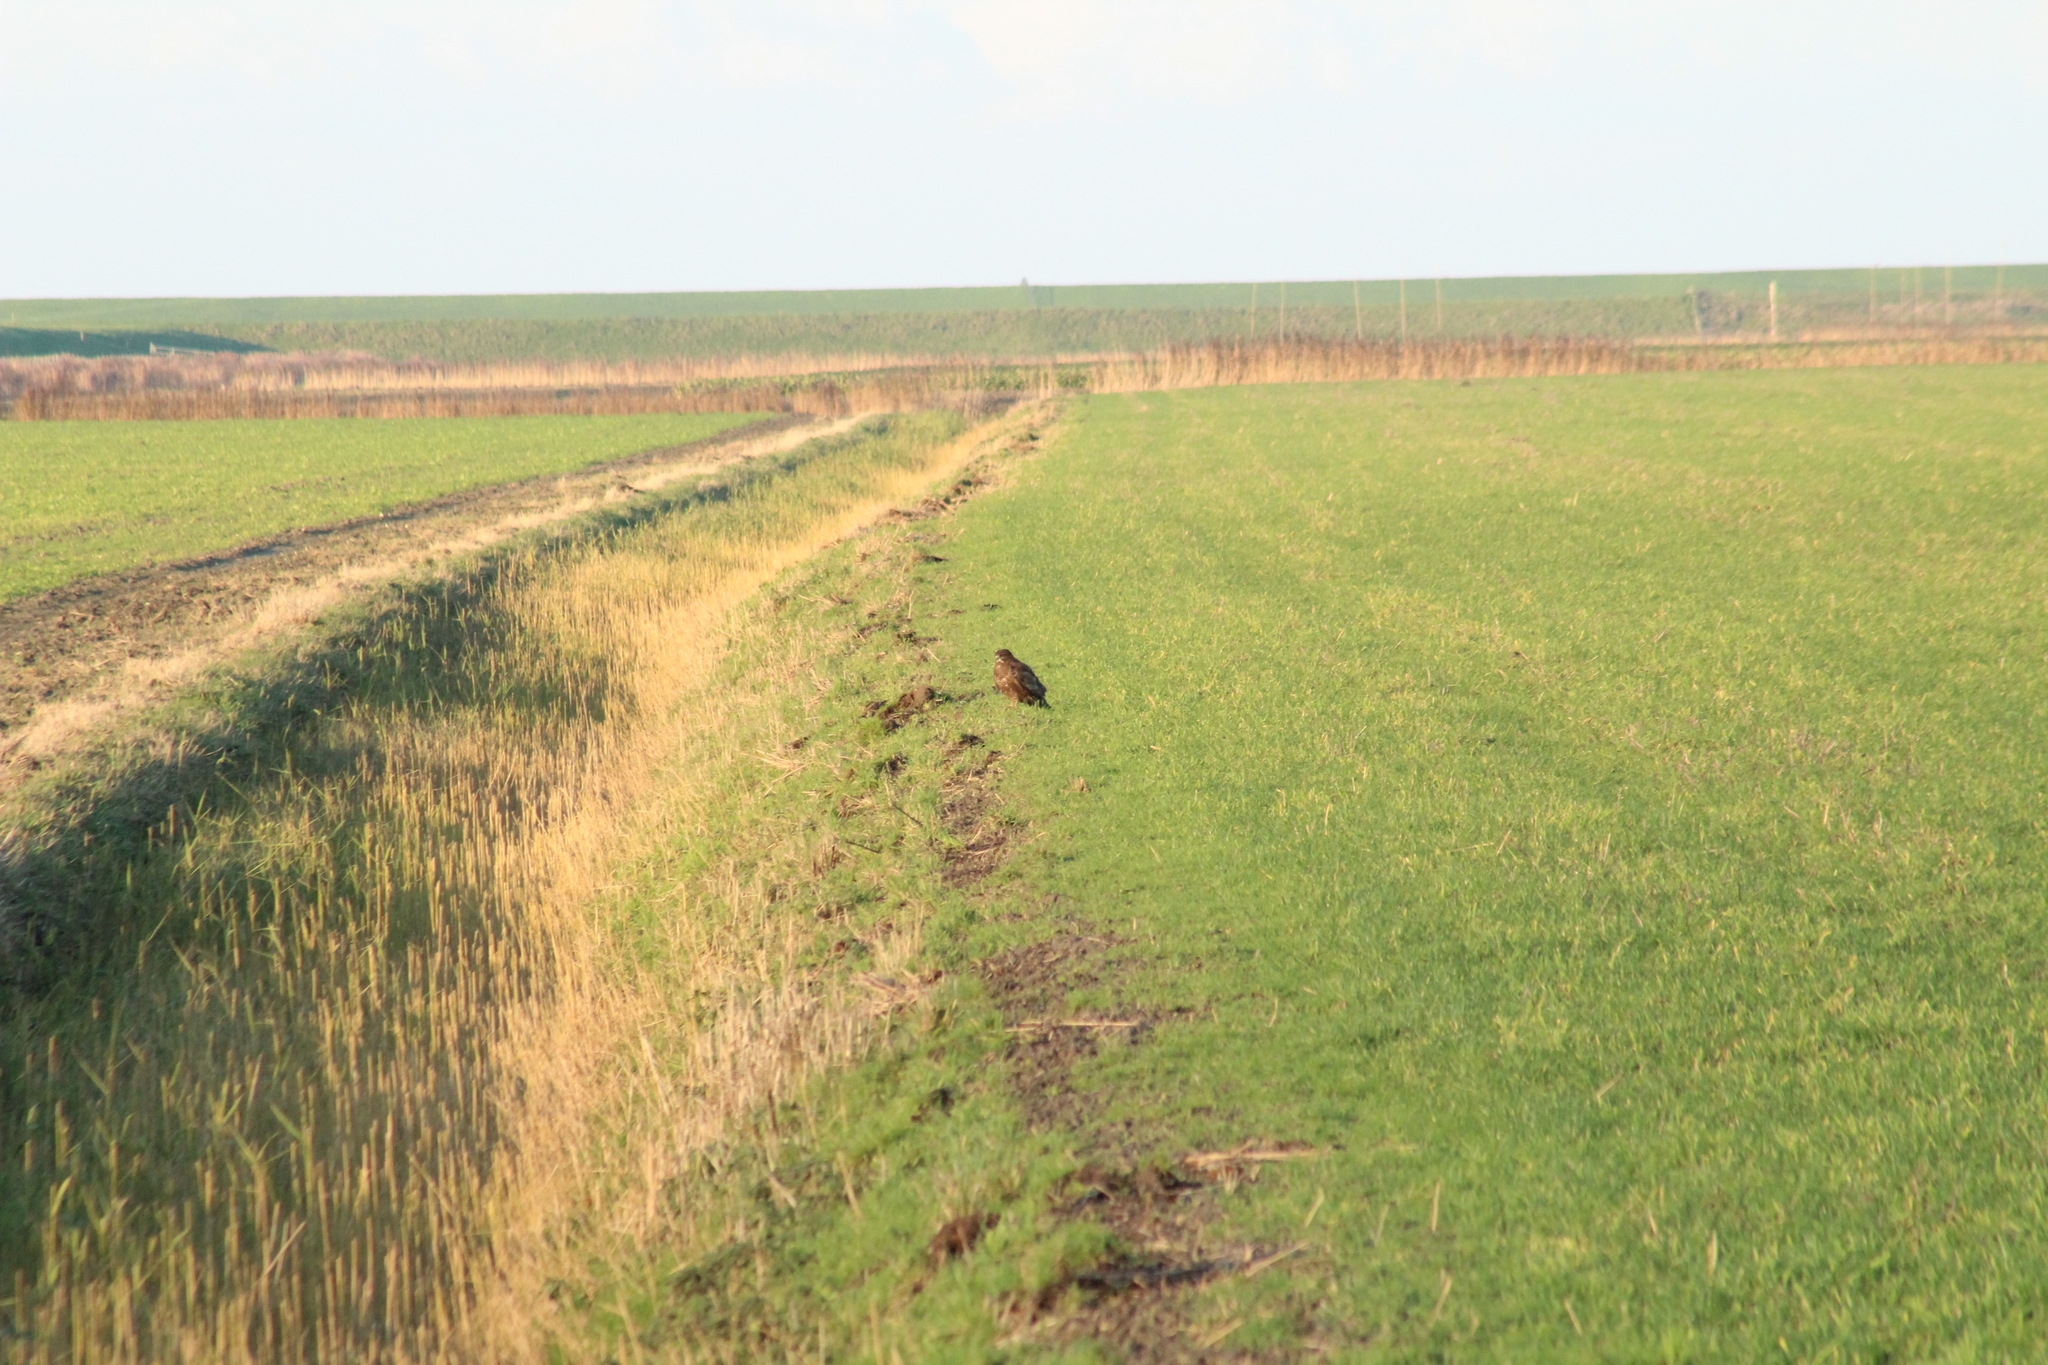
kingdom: Animalia
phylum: Chordata
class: Aves
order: Accipitriformes
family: Accipitridae
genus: Buteo
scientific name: Buteo buteo
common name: Common buzzard
